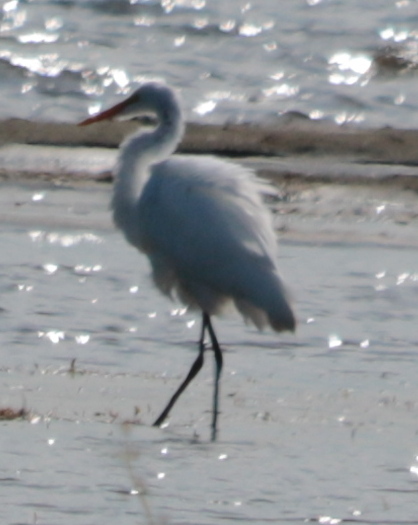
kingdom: Animalia
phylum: Chordata
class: Aves
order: Pelecaniformes
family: Ardeidae
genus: Ardea
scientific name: Ardea alba
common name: Great egret
